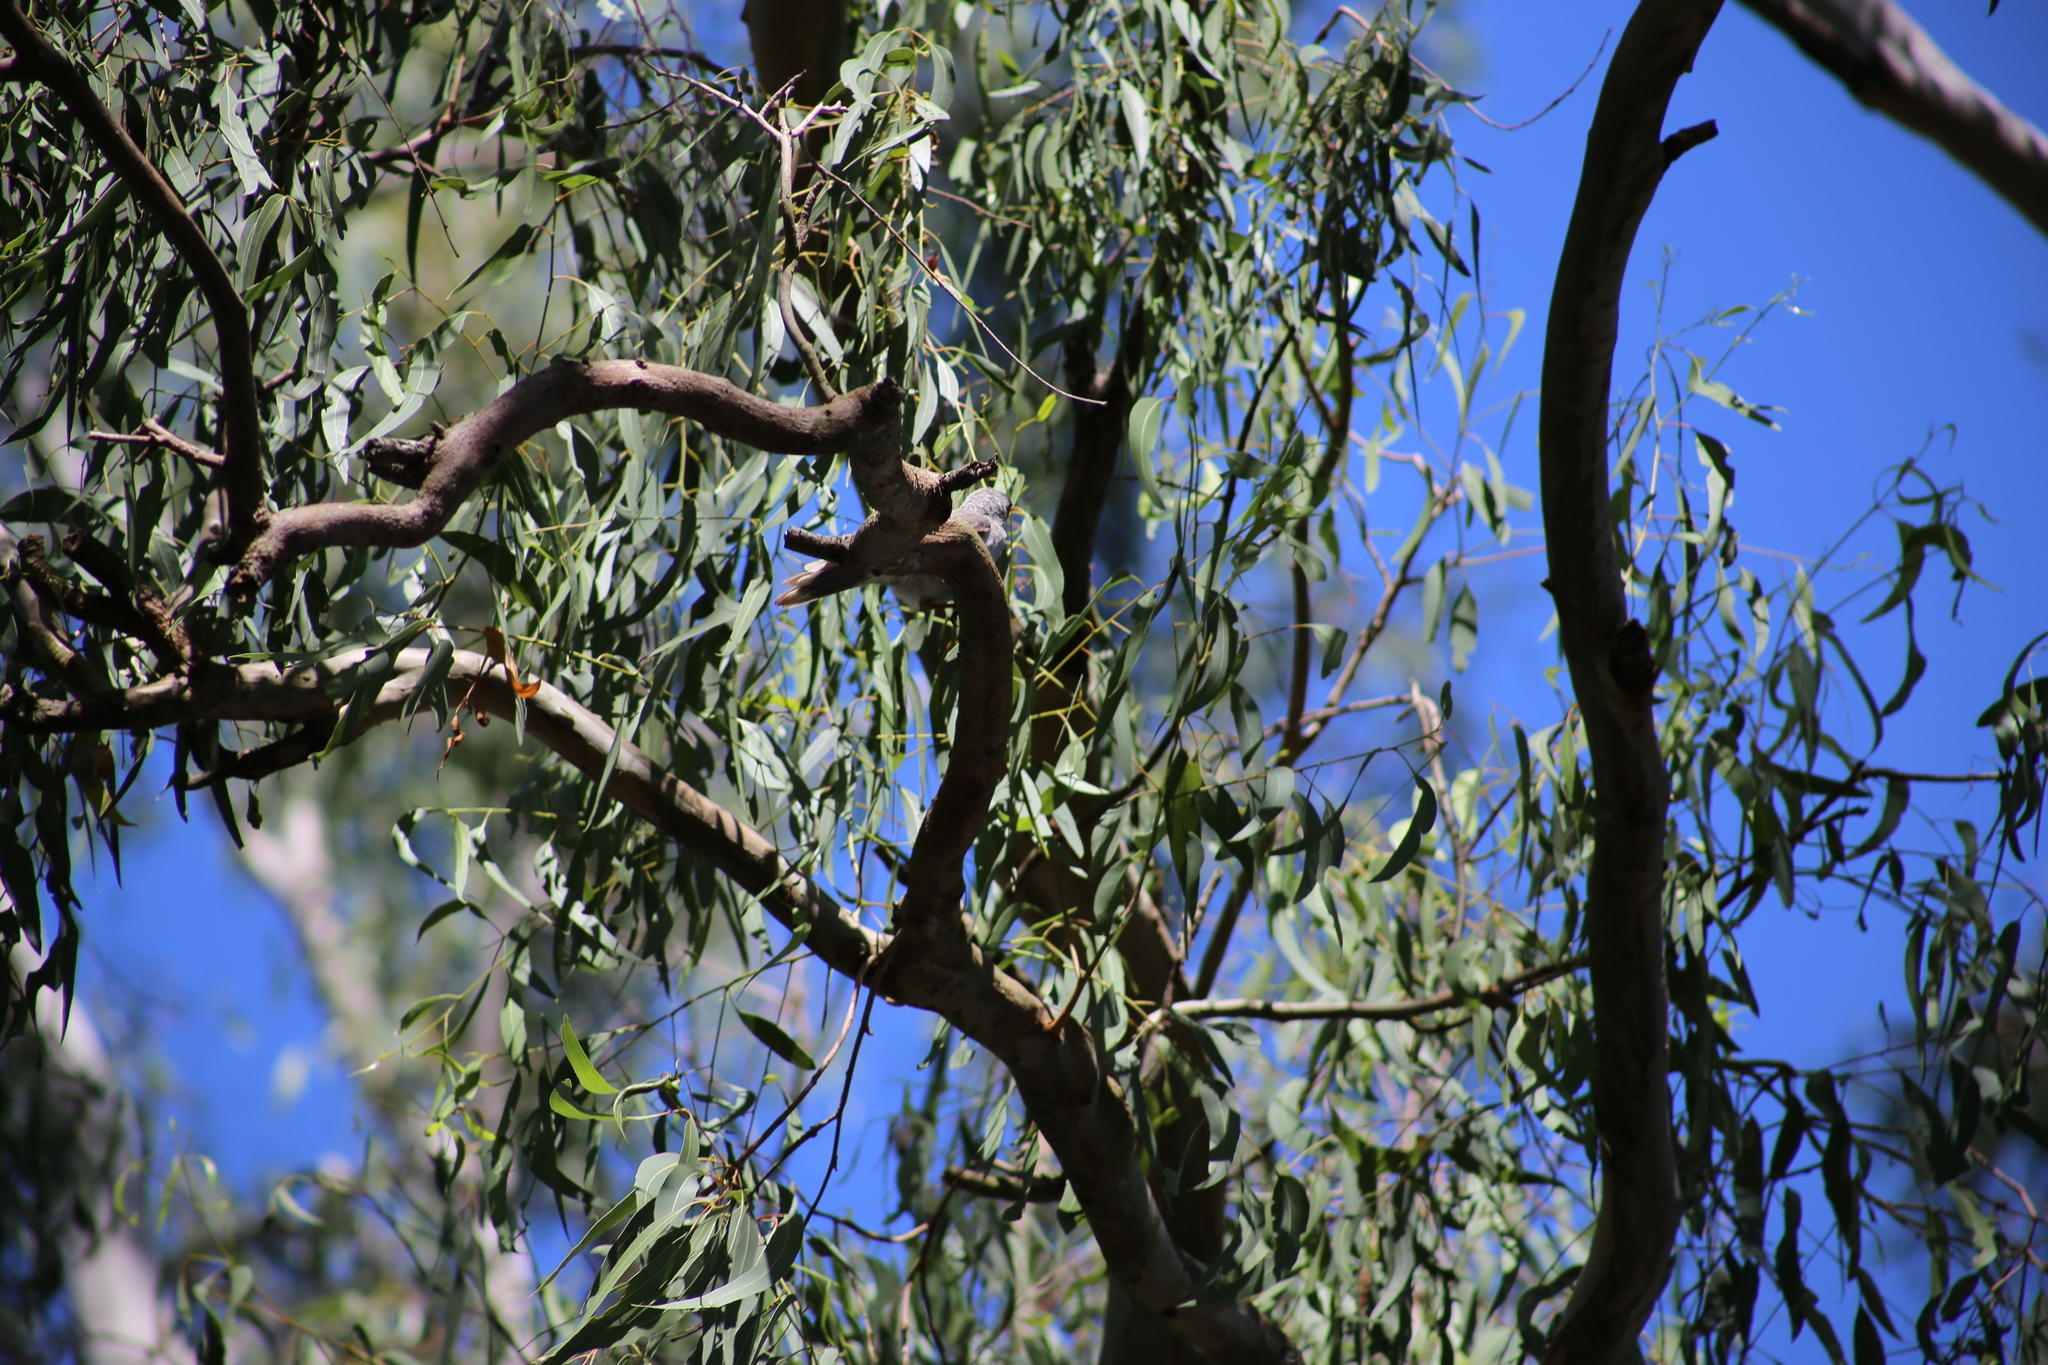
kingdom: Animalia
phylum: Chordata
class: Aves
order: Passeriformes
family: Meliphagidae
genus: Manorina
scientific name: Manorina melanocephala
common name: Noisy miner
